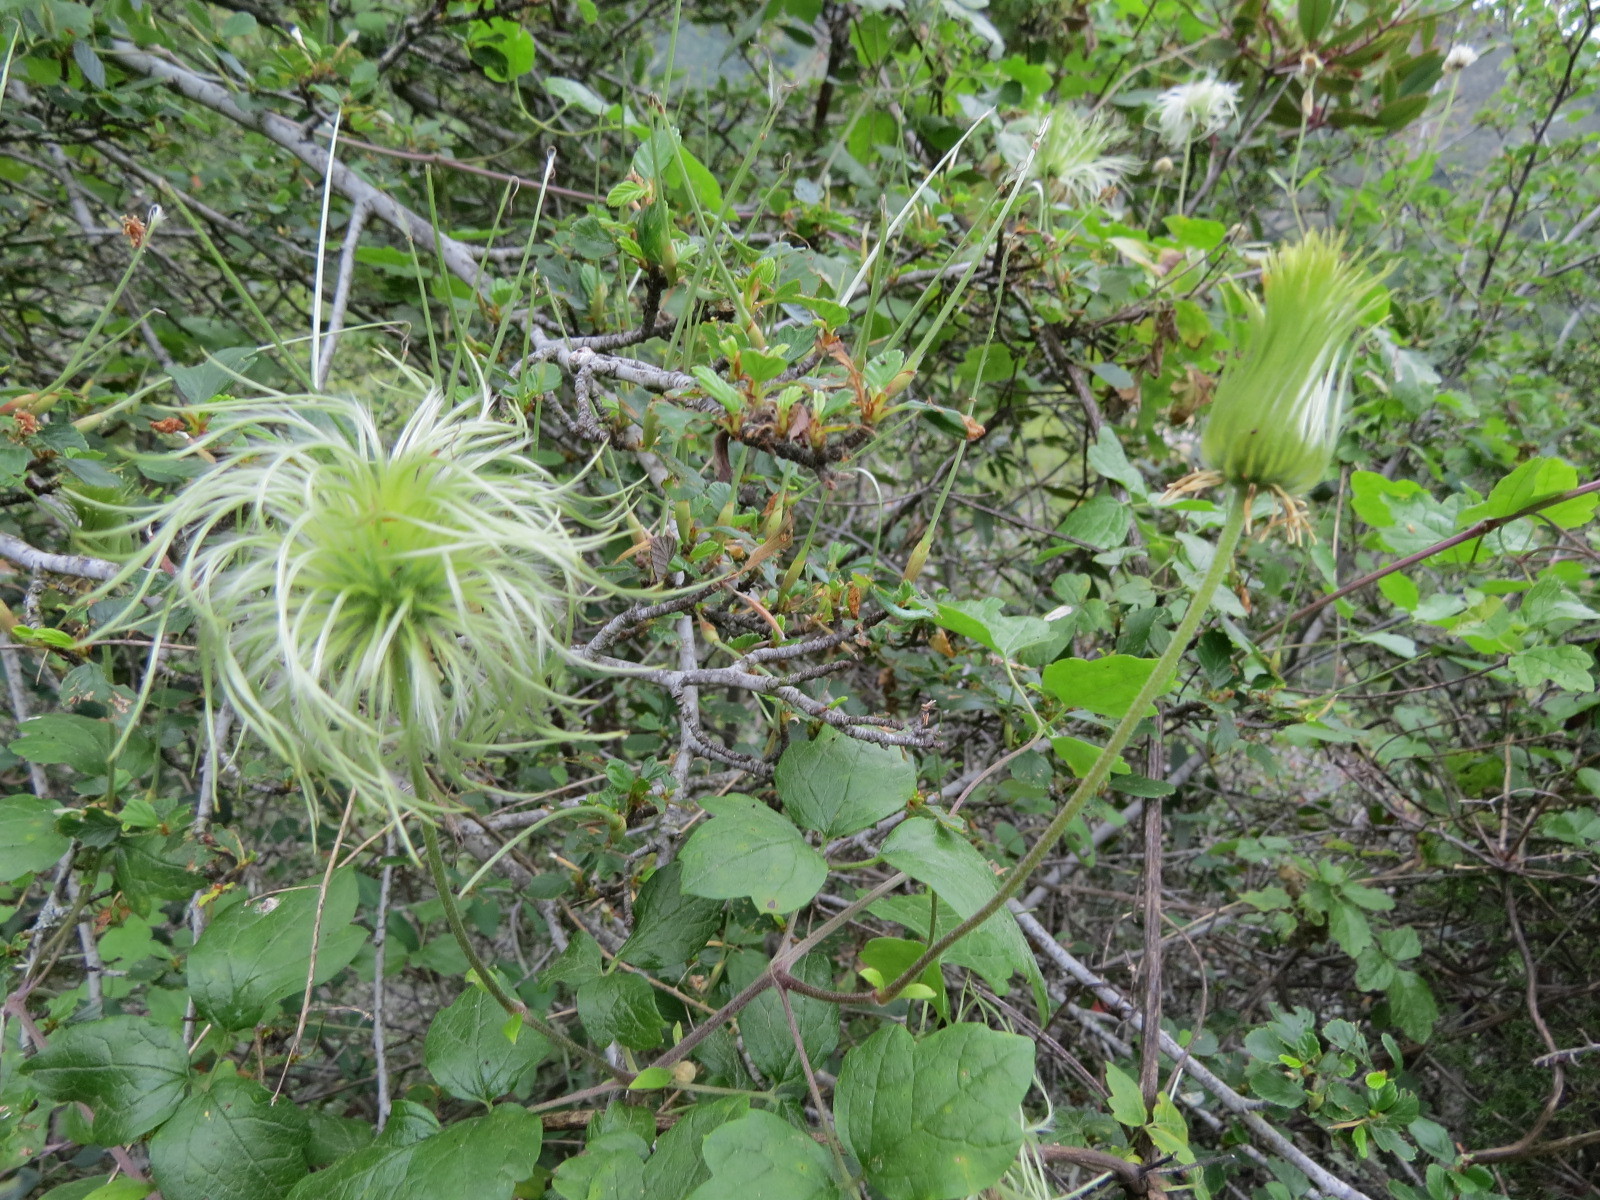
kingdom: Plantae
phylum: Tracheophyta
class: Magnoliopsida
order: Ranunculales
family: Ranunculaceae
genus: Clematis
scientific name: Clematis lasiantha
